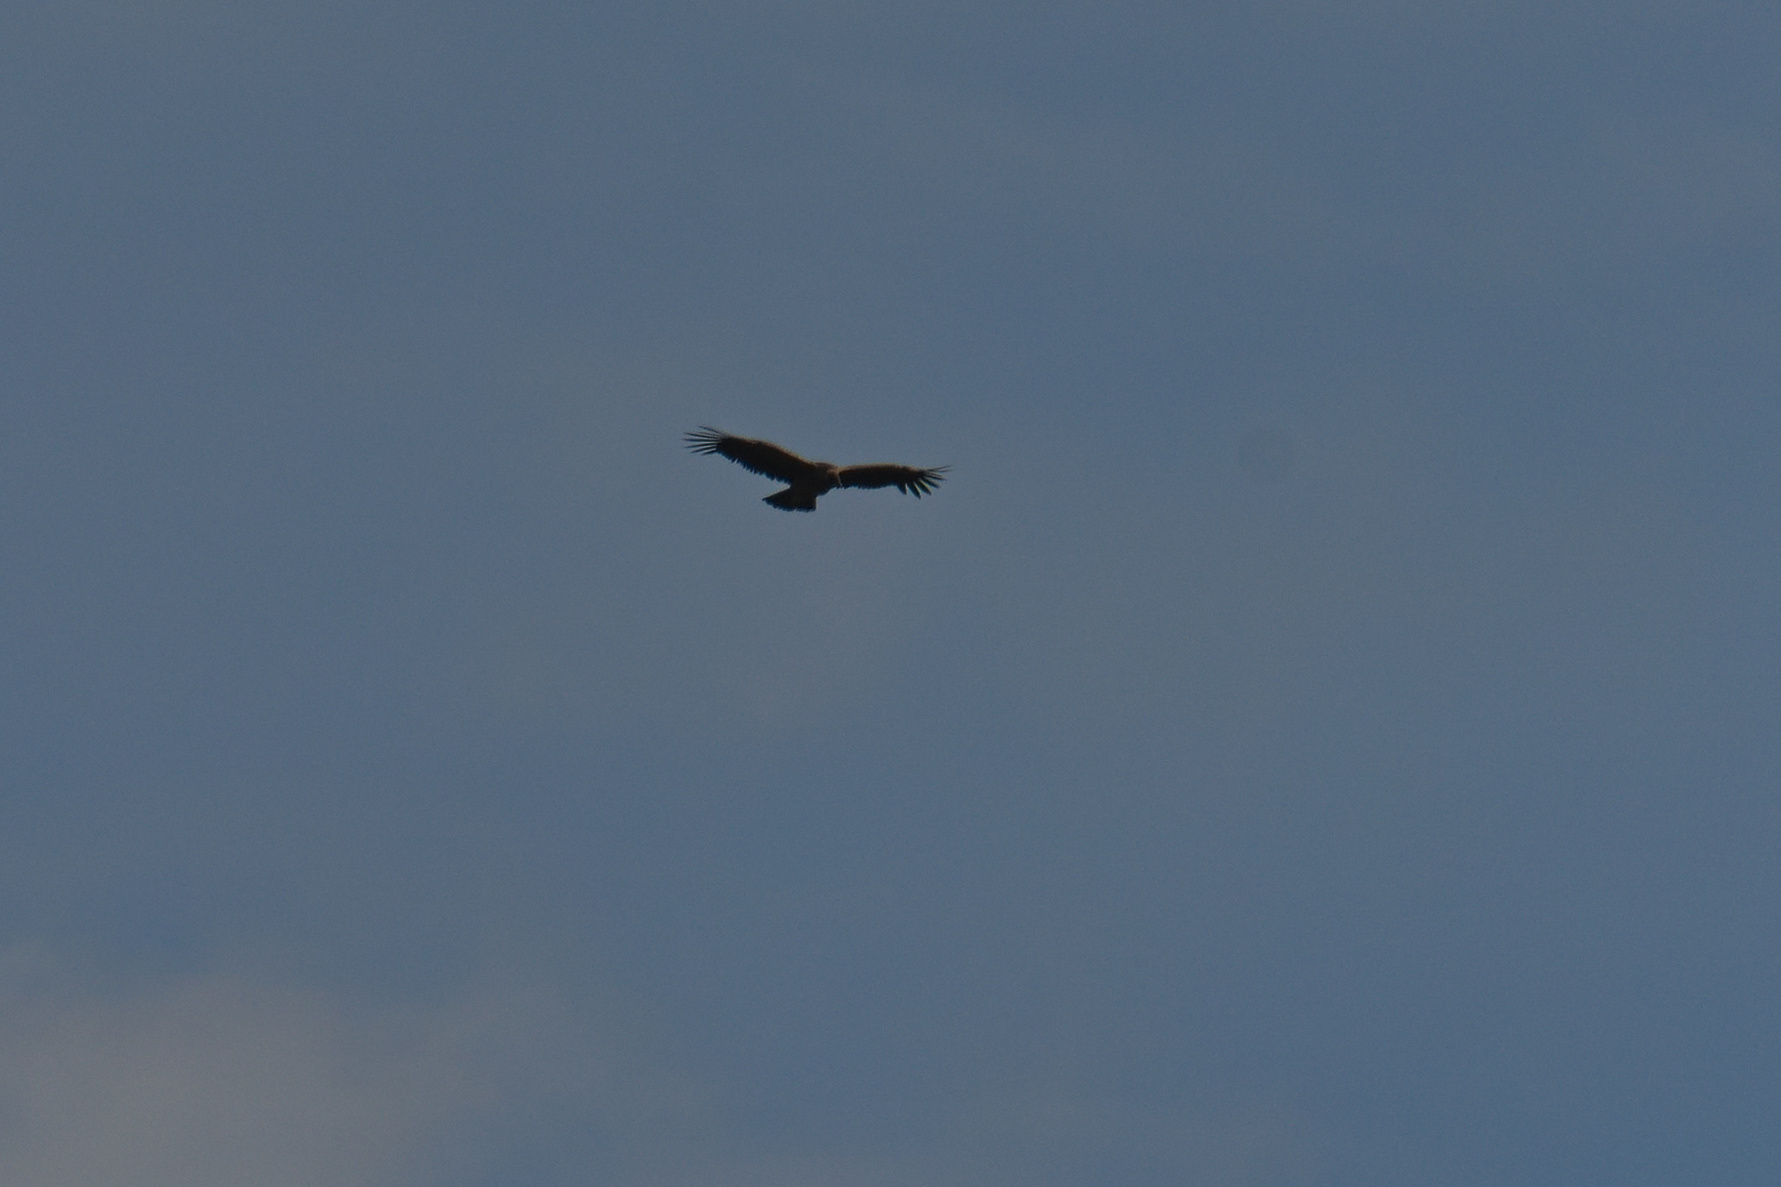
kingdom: Animalia
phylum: Chordata
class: Aves
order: Accipitriformes
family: Cathartidae
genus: Vultur
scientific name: Vultur gryphus
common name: Andean condor
